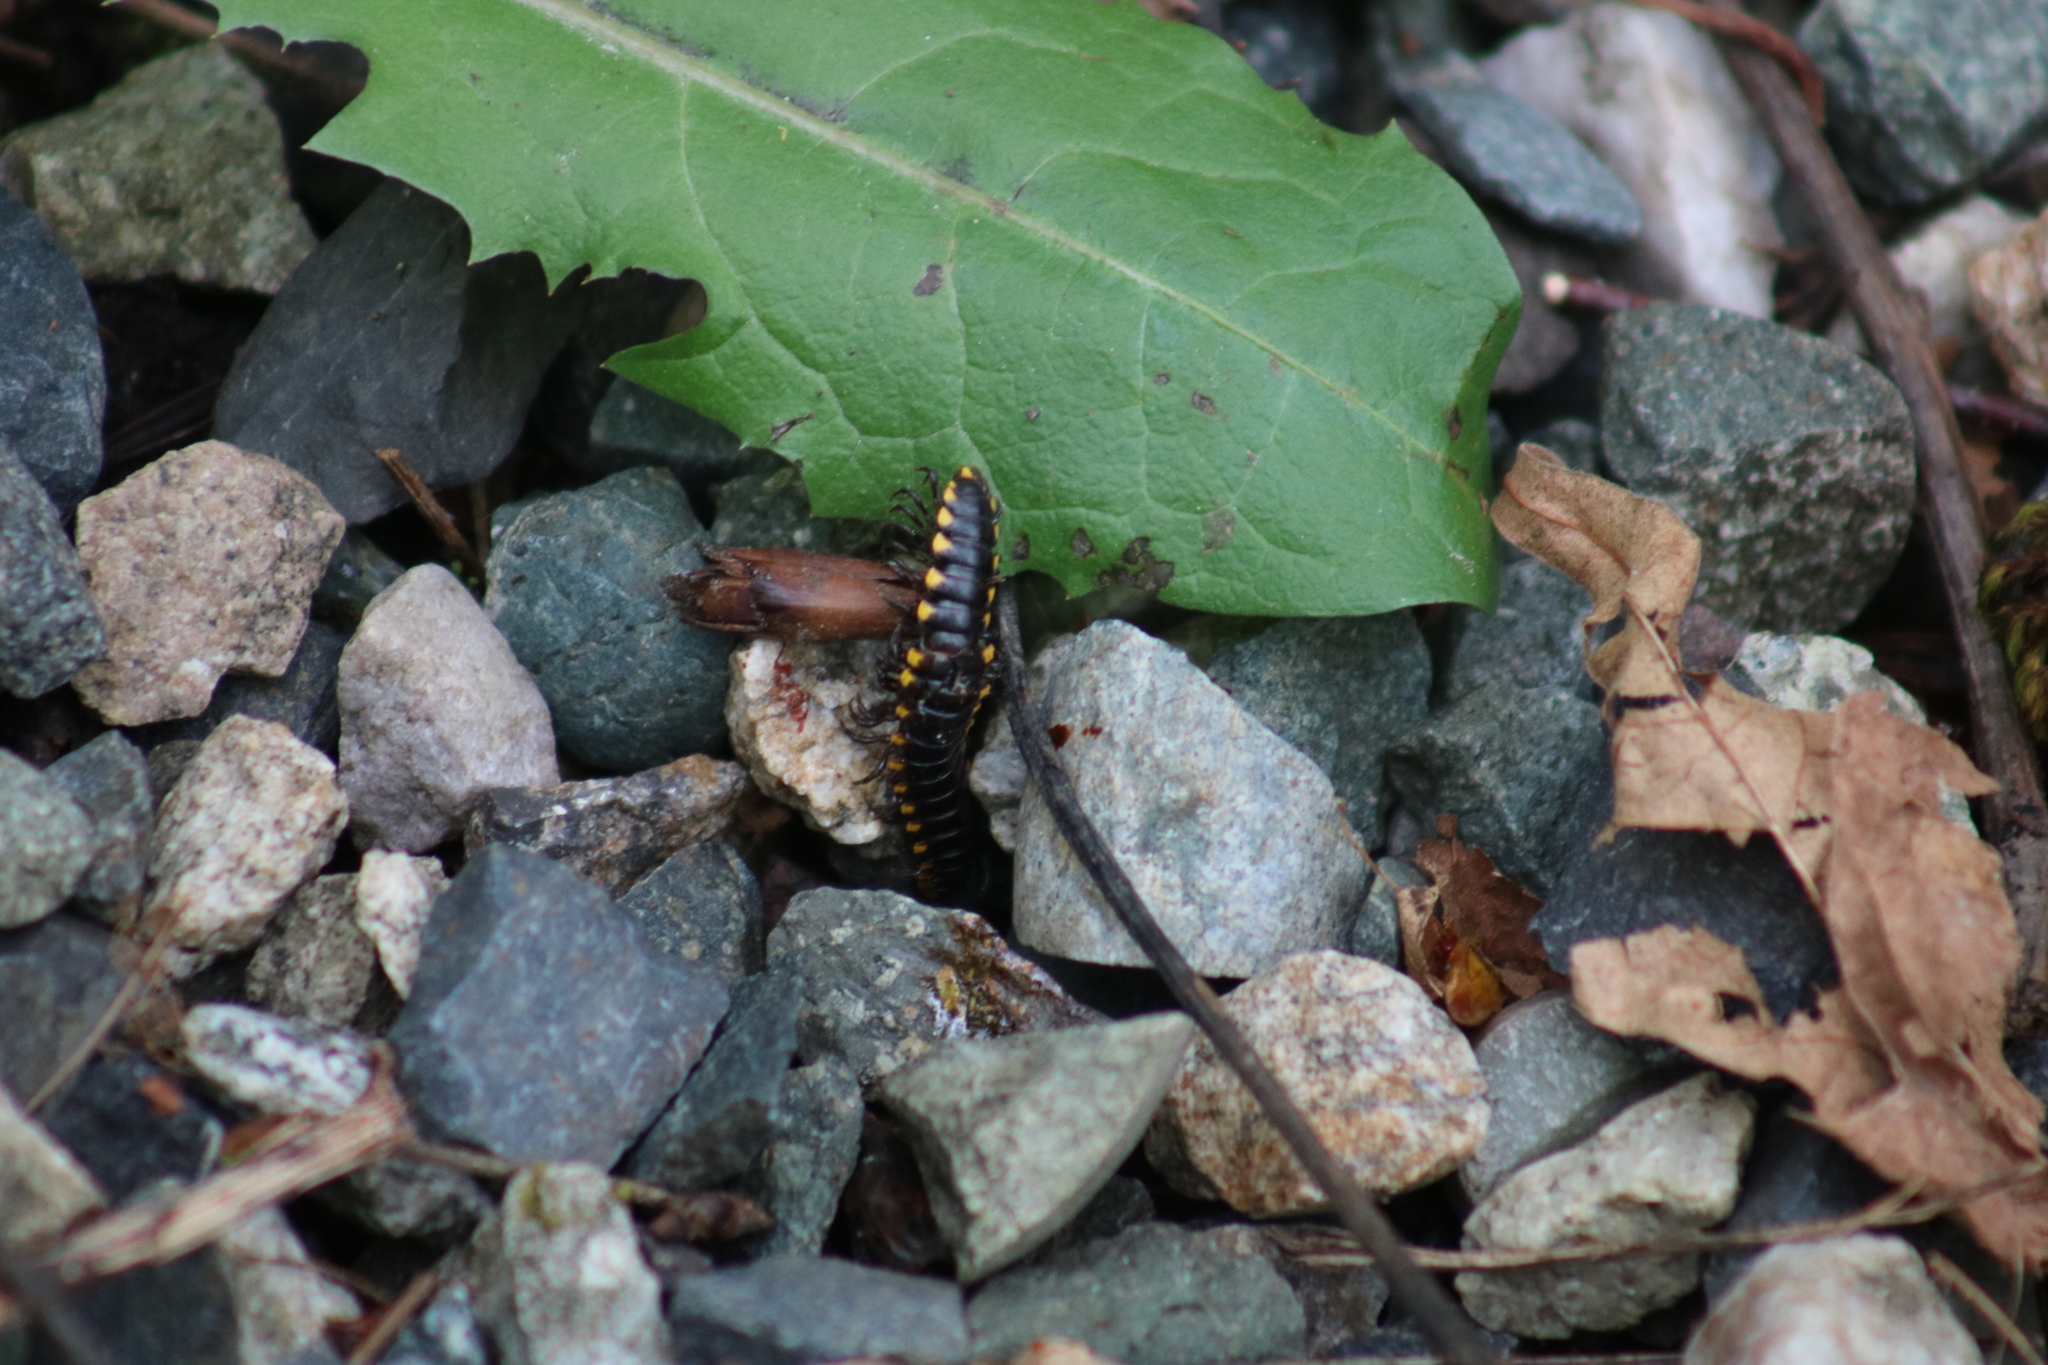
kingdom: Animalia
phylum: Arthropoda
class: Diplopoda
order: Polydesmida
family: Xystodesmidae
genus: Harpaphe
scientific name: Harpaphe haydeniana
